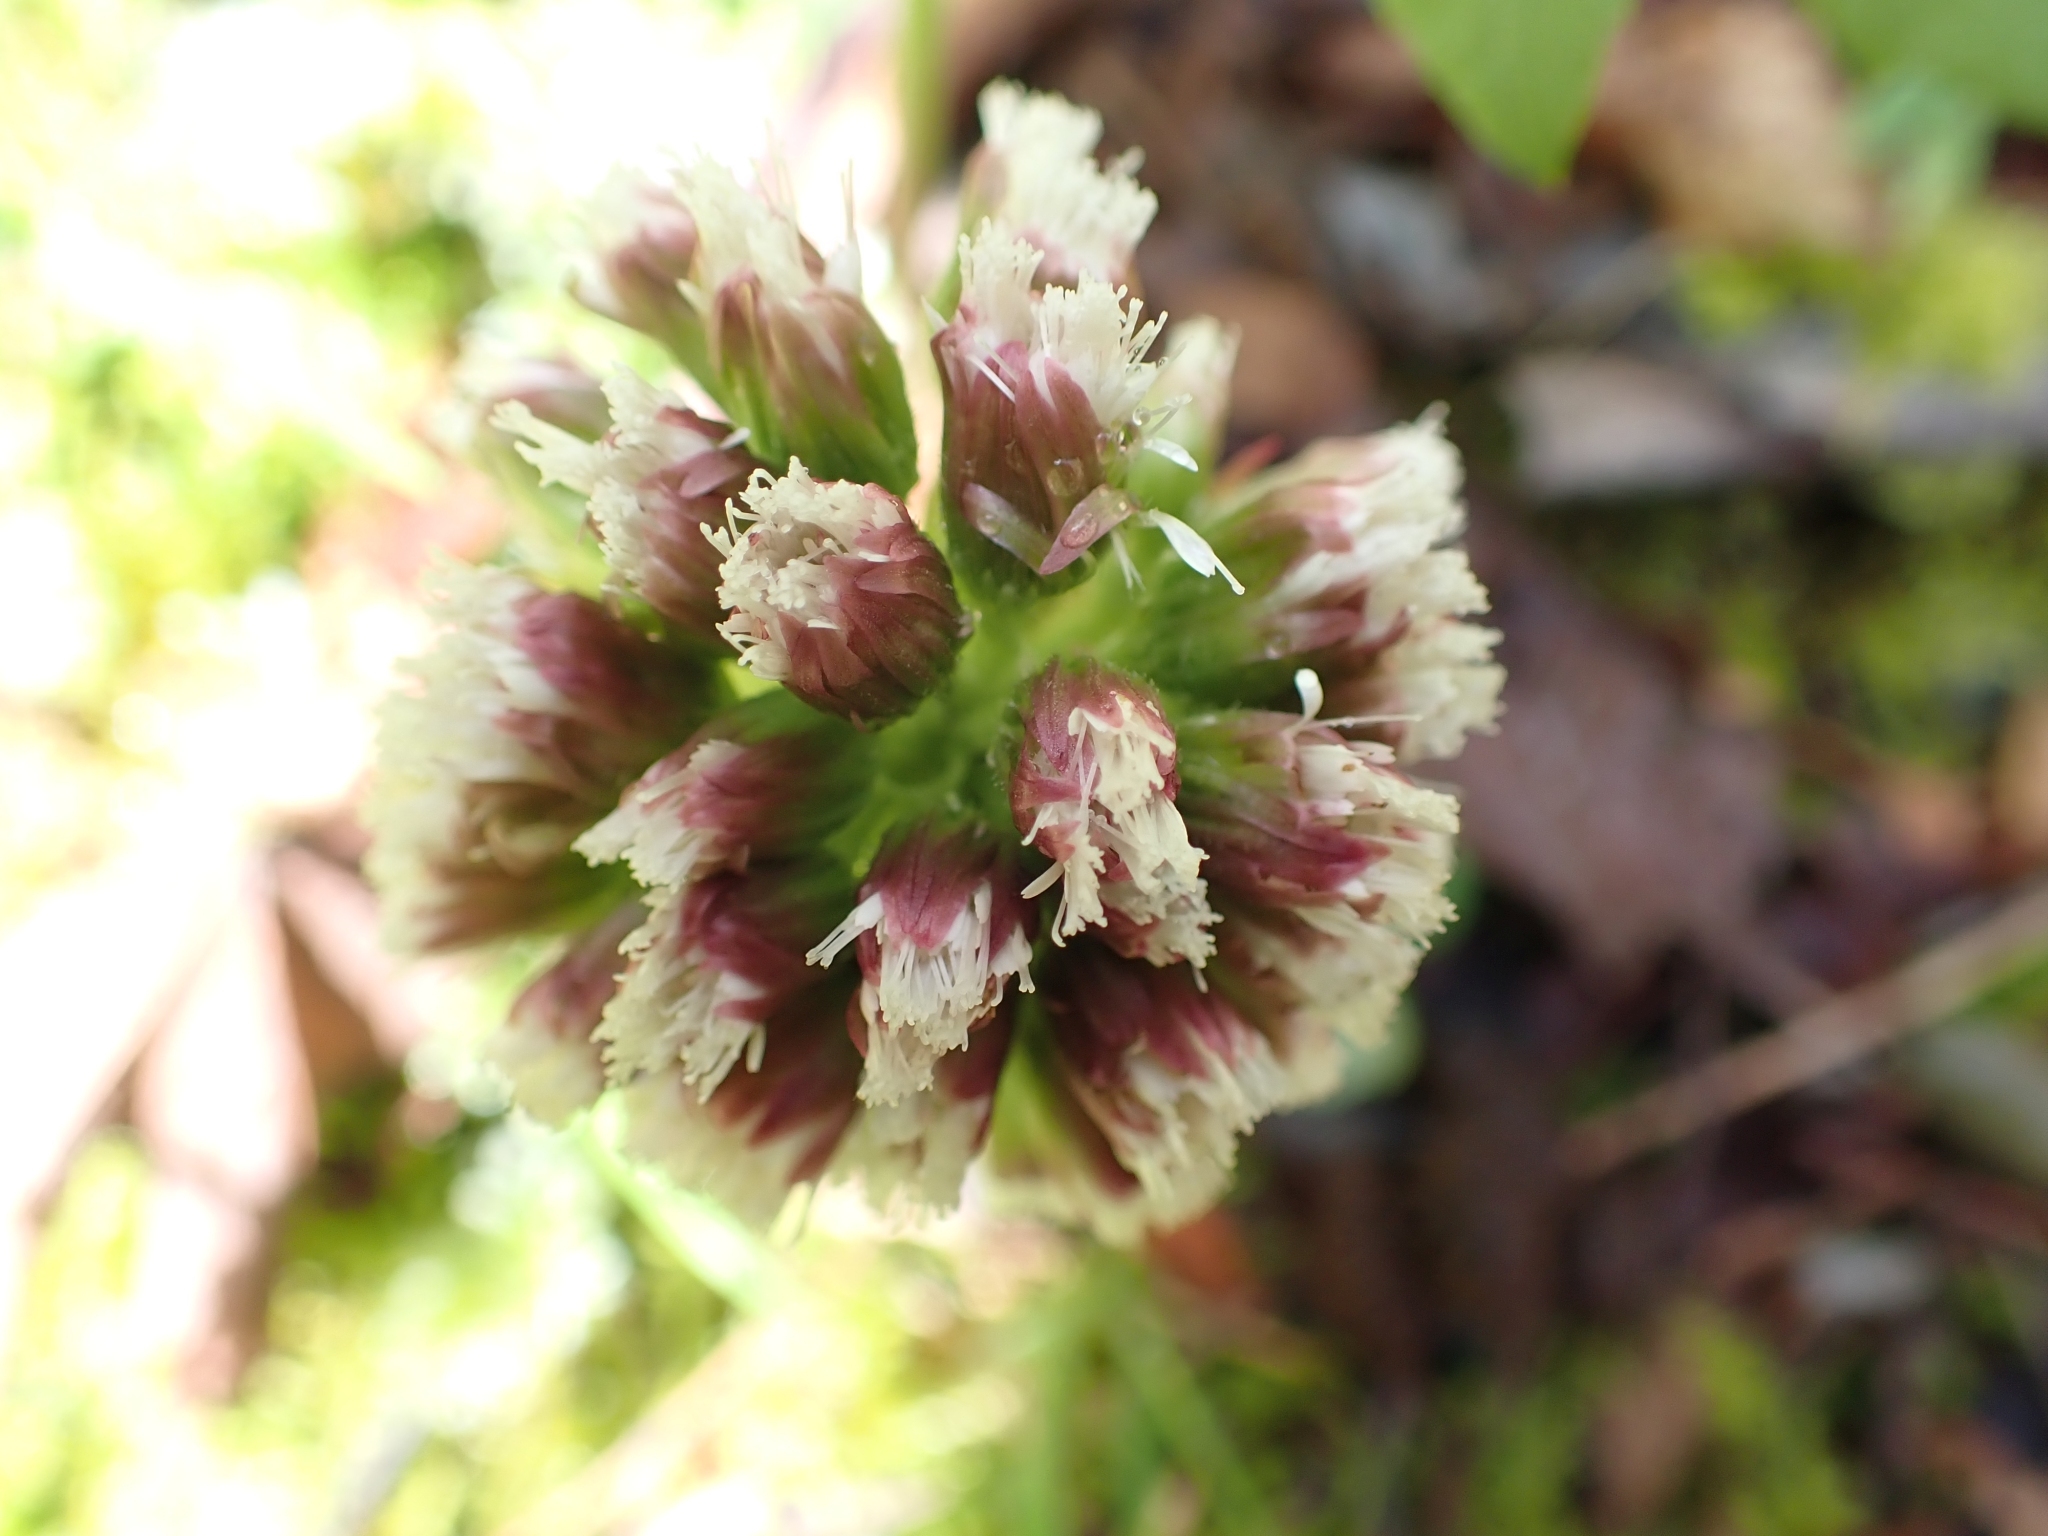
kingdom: Plantae
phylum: Tracheophyta
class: Magnoliopsida
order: Asterales
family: Asteraceae
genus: Petasites
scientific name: Petasites frigidus
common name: Arctic butterbur
